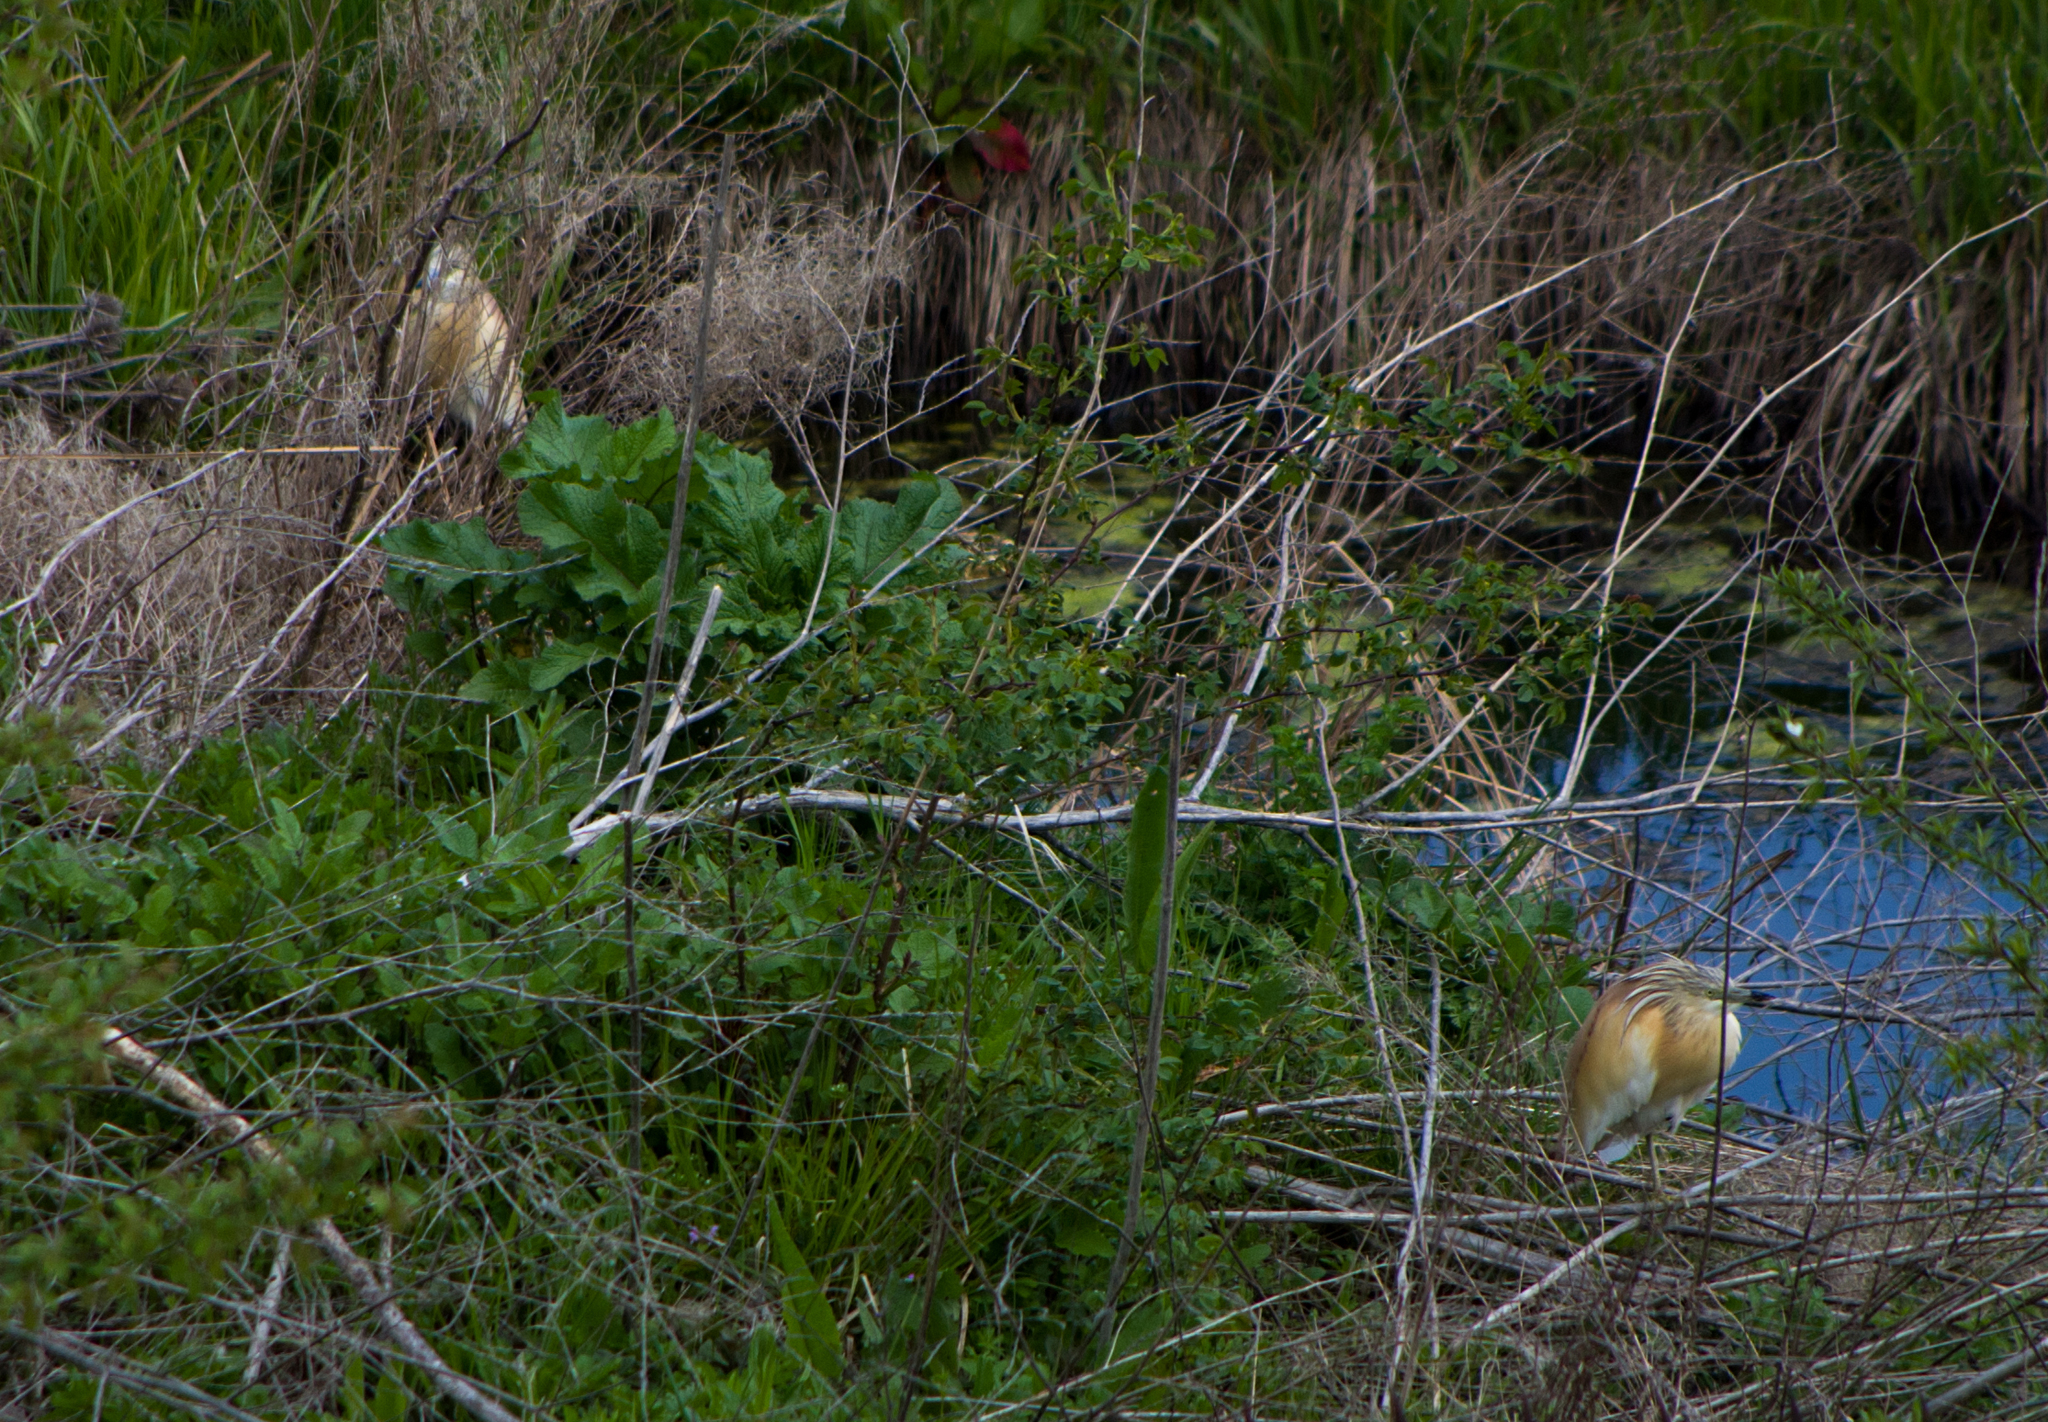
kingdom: Animalia
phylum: Chordata
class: Aves
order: Pelecaniformes
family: Ardeidae
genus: Ardeola
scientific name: Ardeola ralloides
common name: Squacco heron
